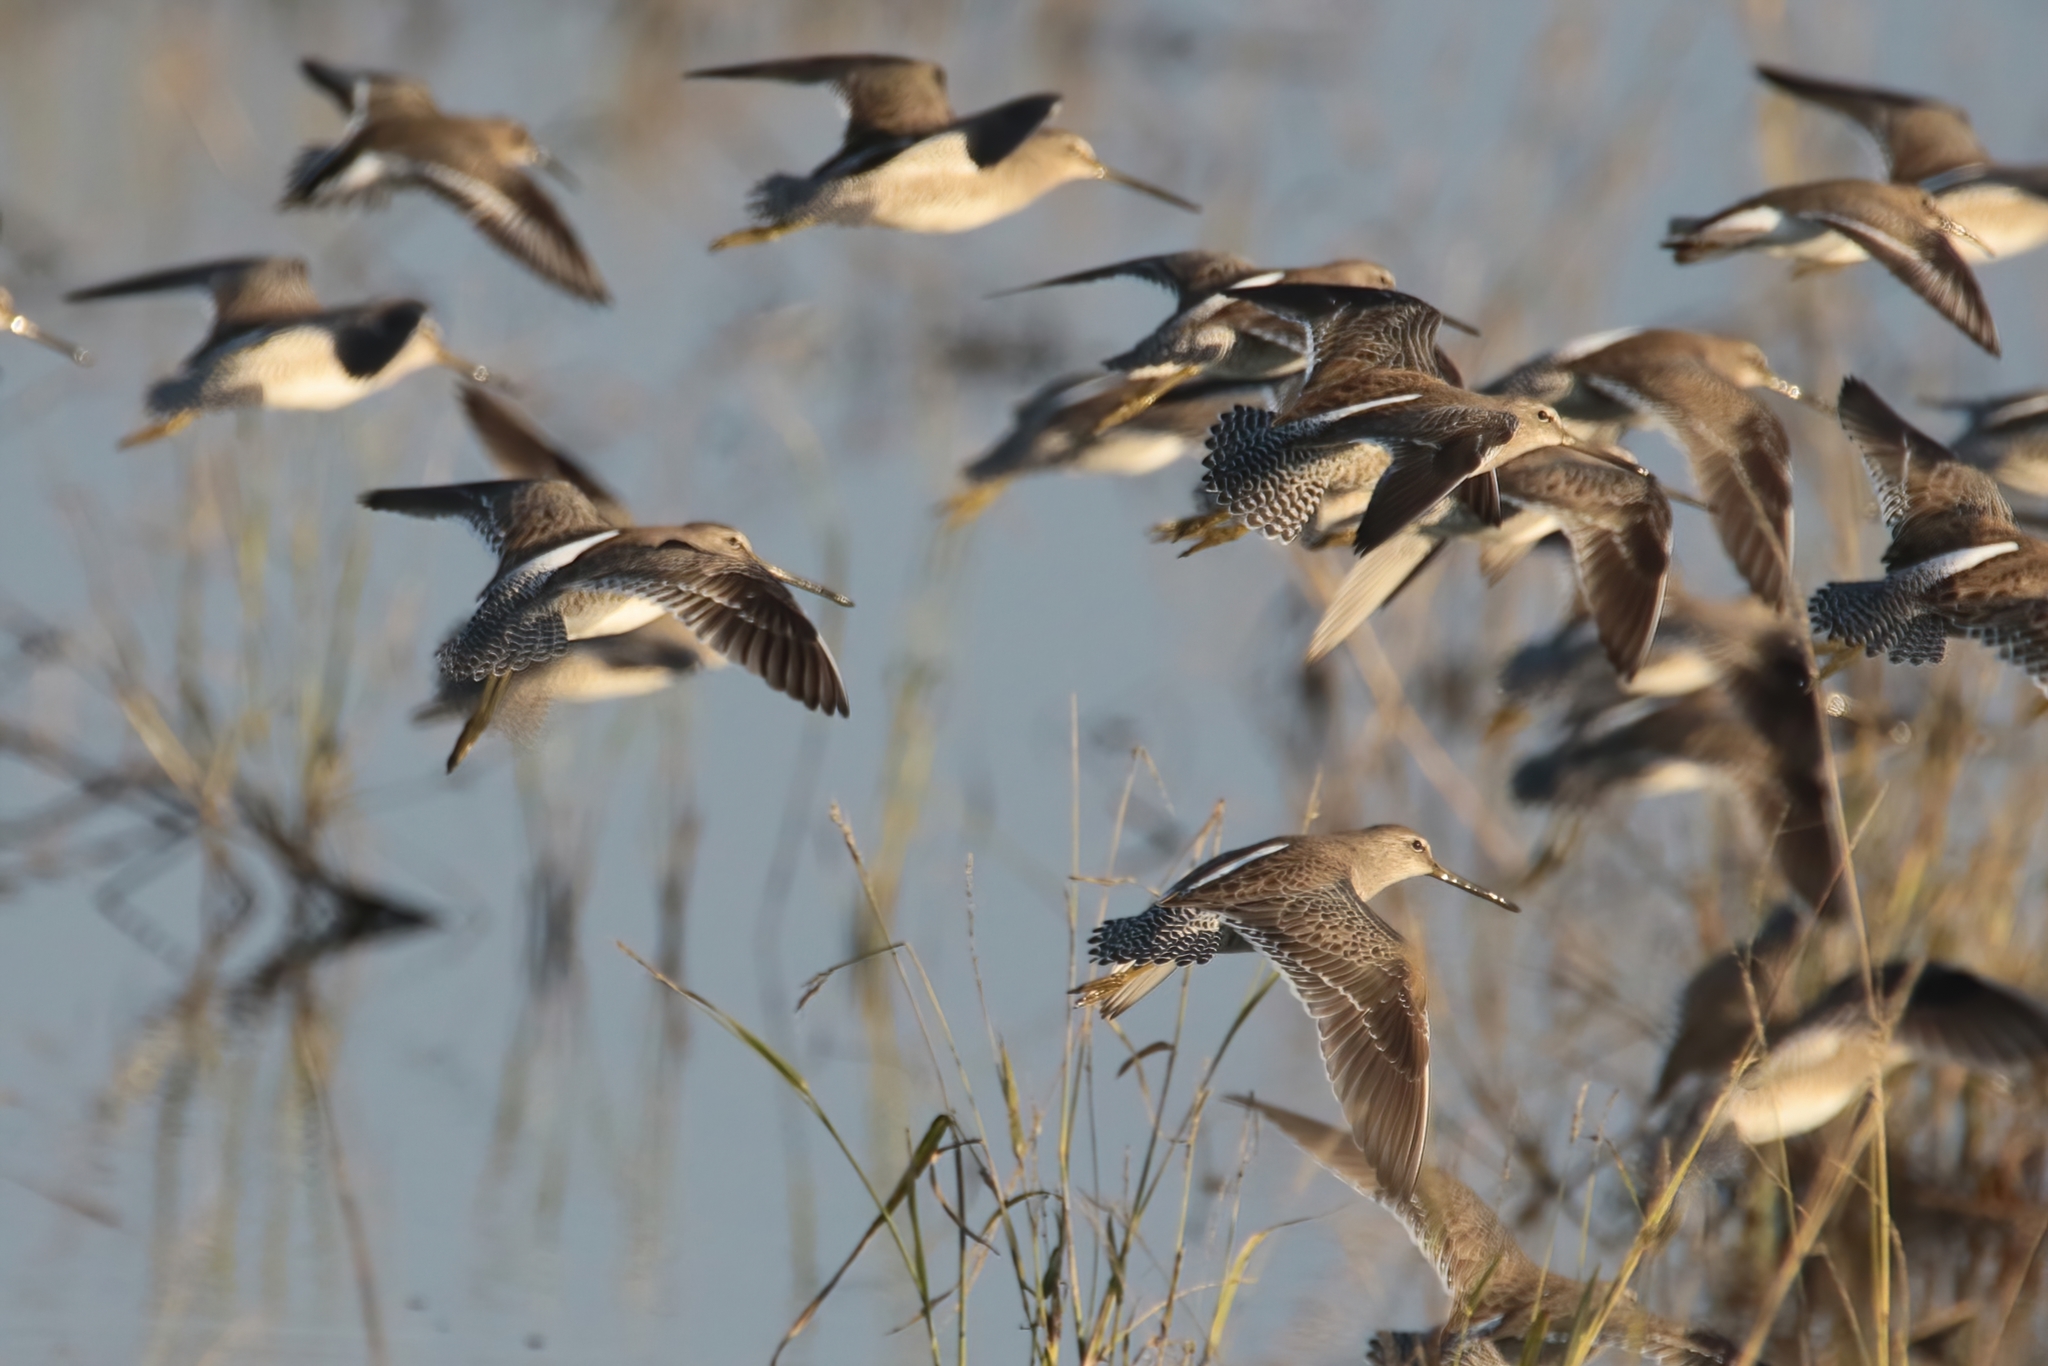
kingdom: Animalia
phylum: Chordata
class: Aves
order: Charadriiformes
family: Scolopacidae
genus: Limnodromus
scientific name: Limnodromus scolopaceus
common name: Long-billed dowitcher
